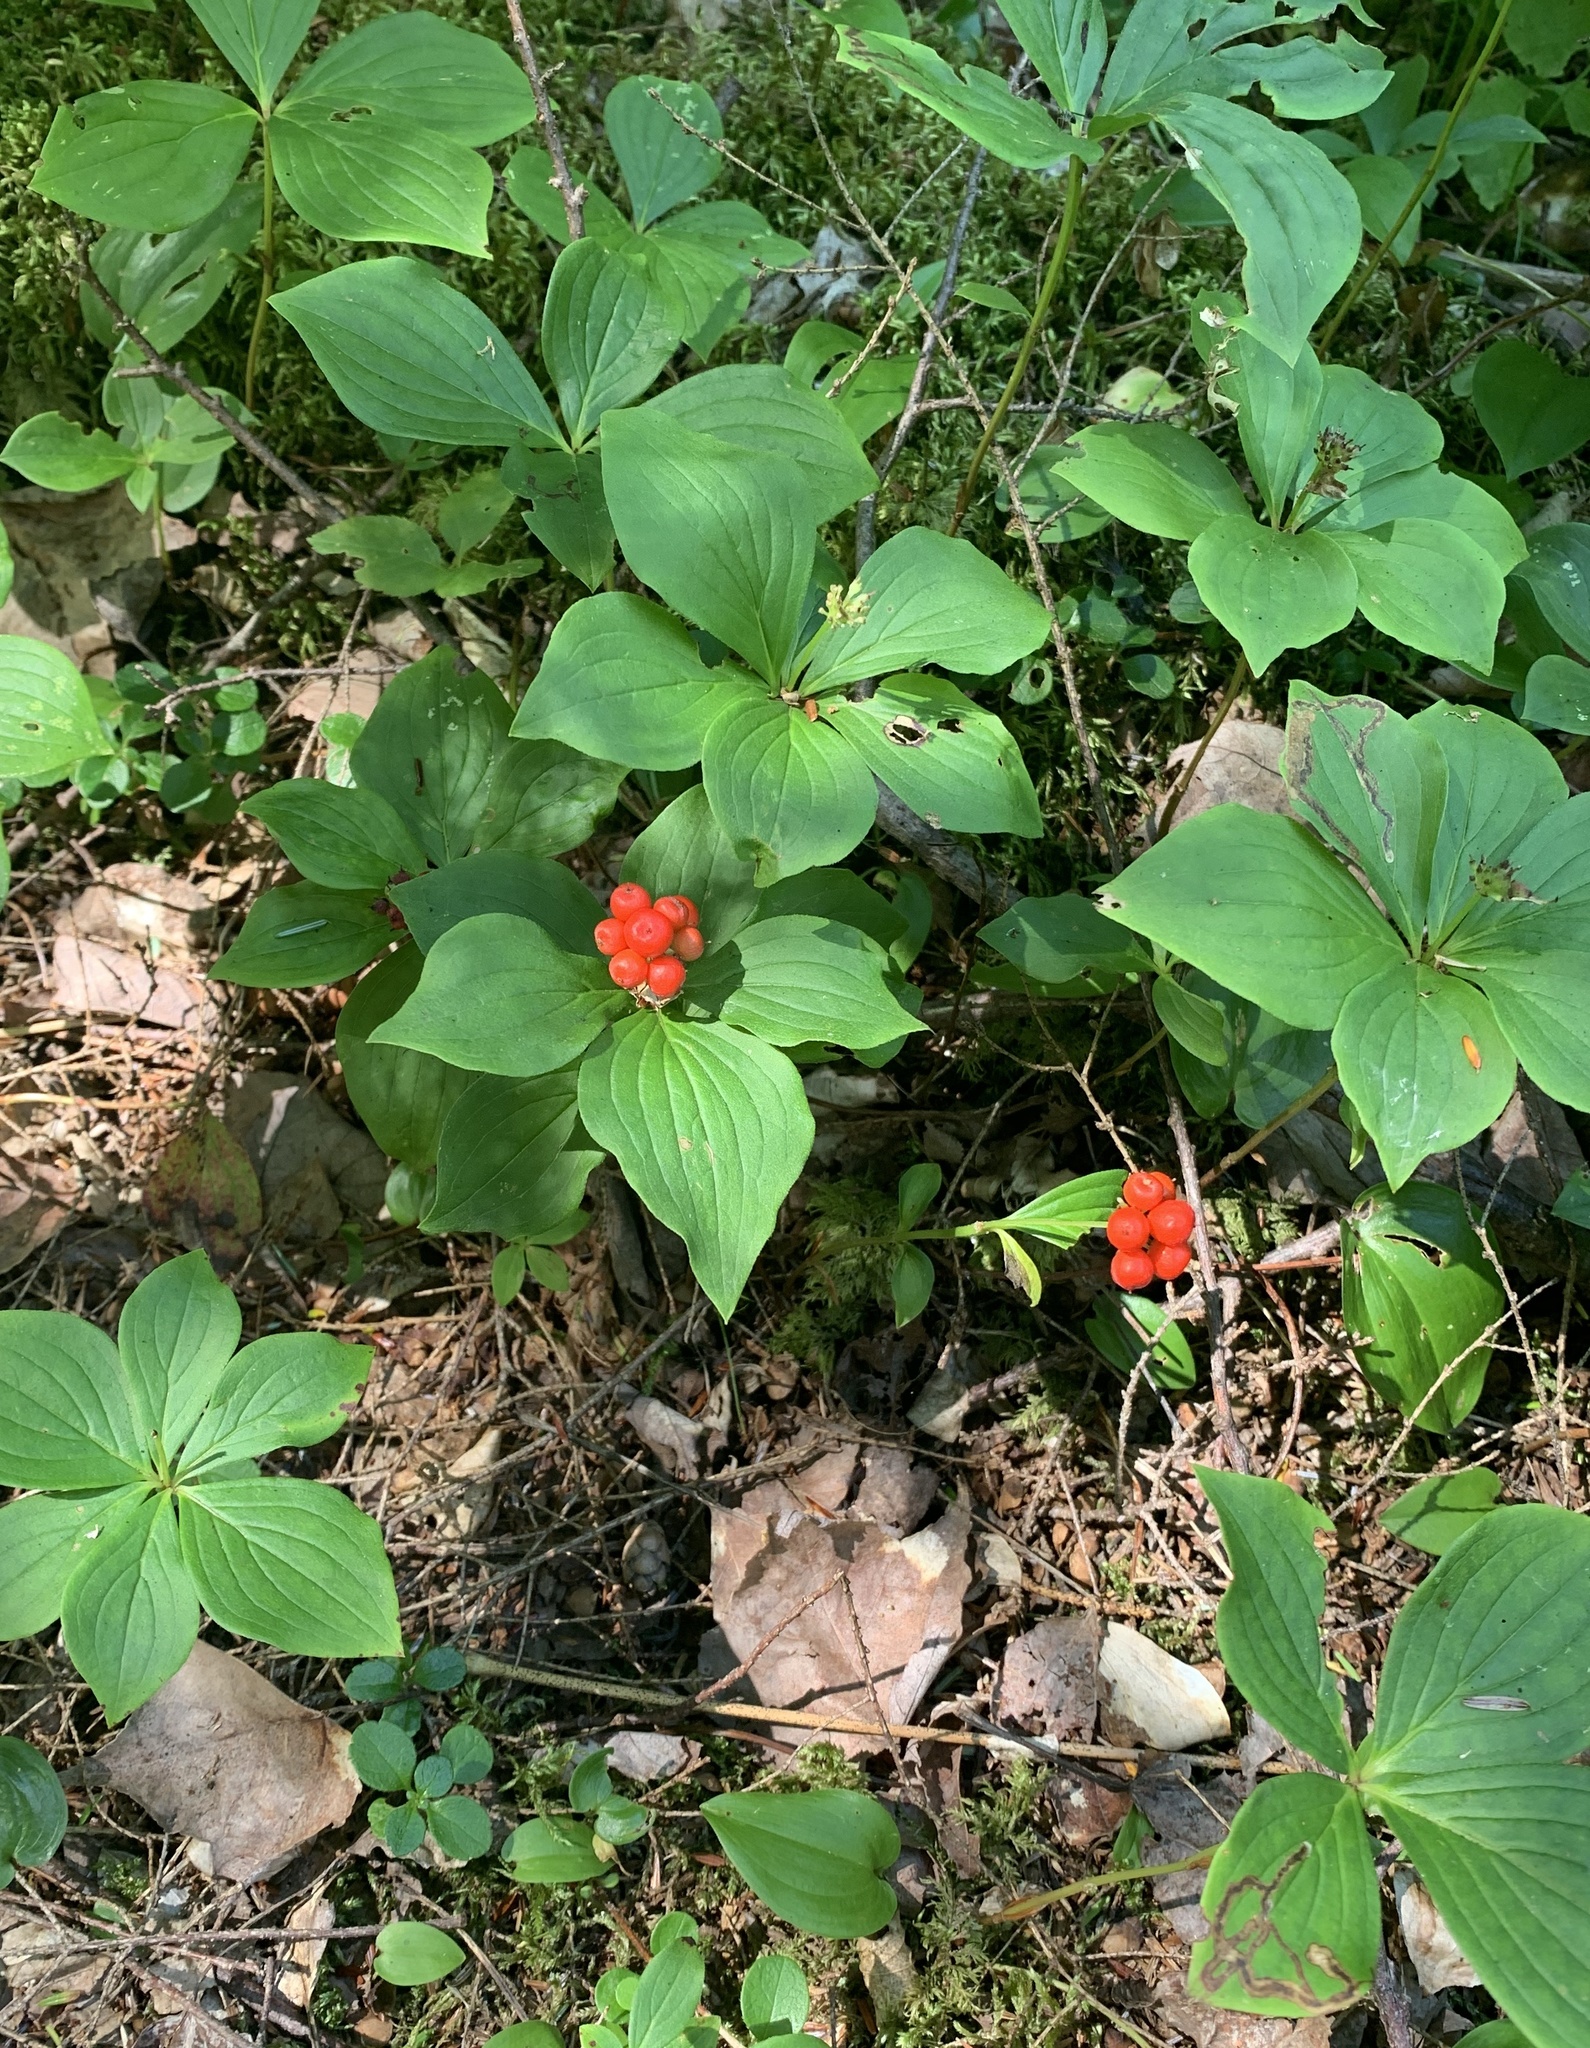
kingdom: Plantae
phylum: Tracheophyta
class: Magnoliopsida
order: Cornales
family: Cornaceae
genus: Cornus
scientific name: Cornus canadensis
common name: Creeping dogwood
